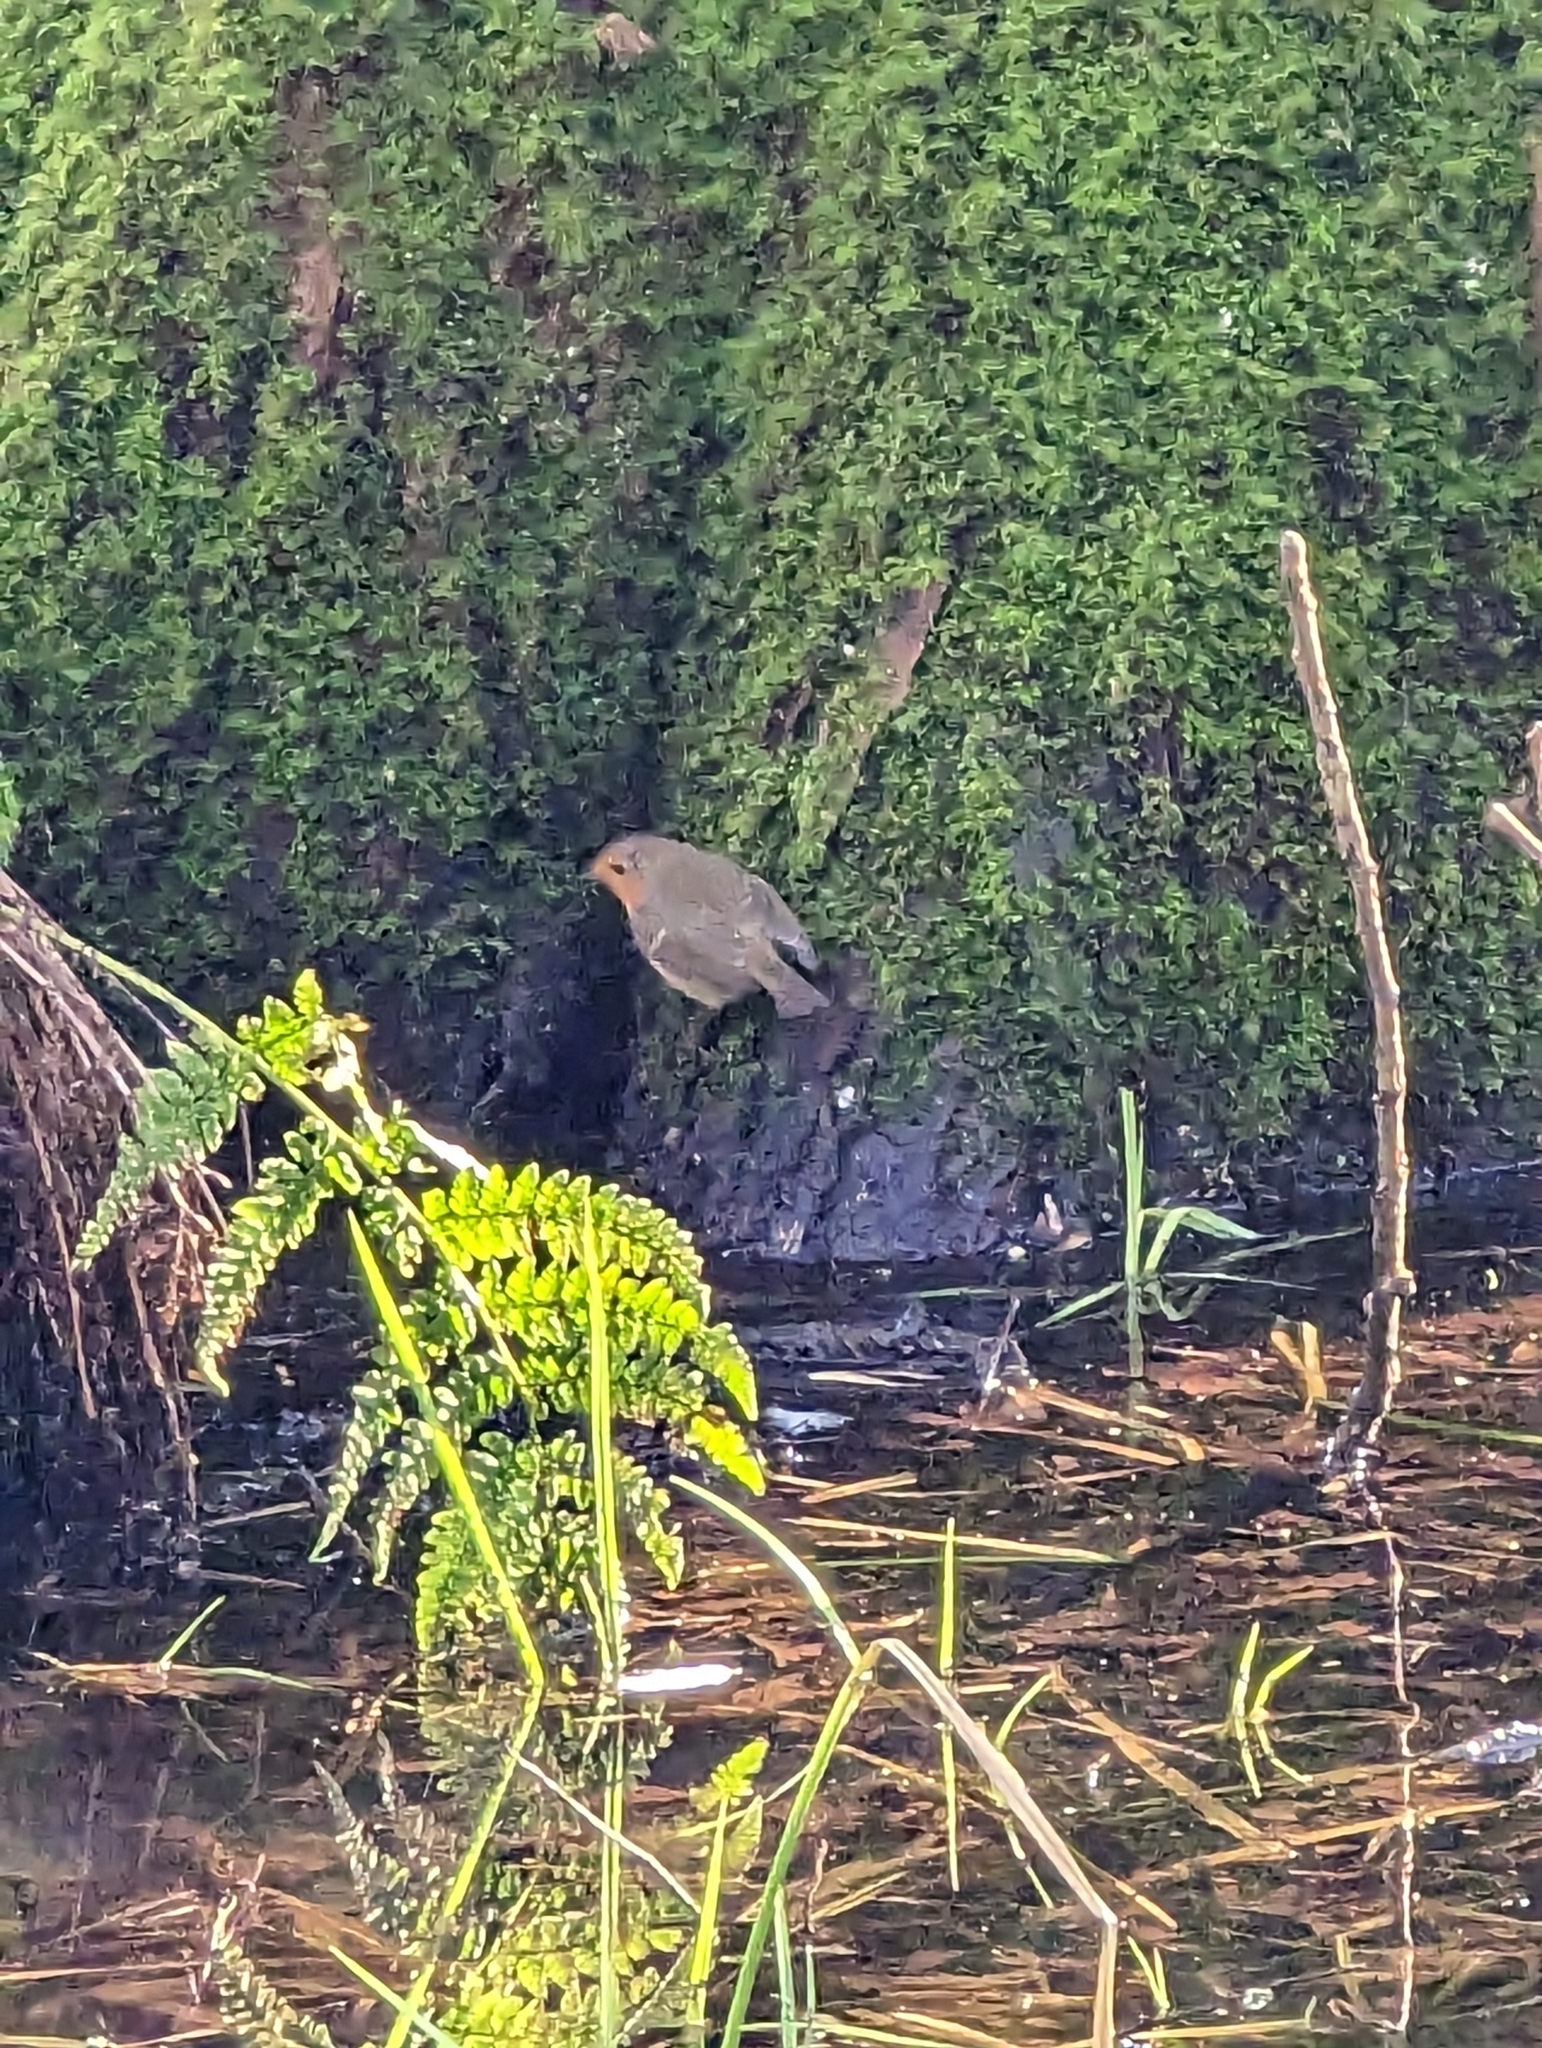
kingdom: Animalia
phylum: Chordata
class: Aves
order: Passeriformes
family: Muscicapidae
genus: Erithacus
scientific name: Erithacus rubecula
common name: European robin
